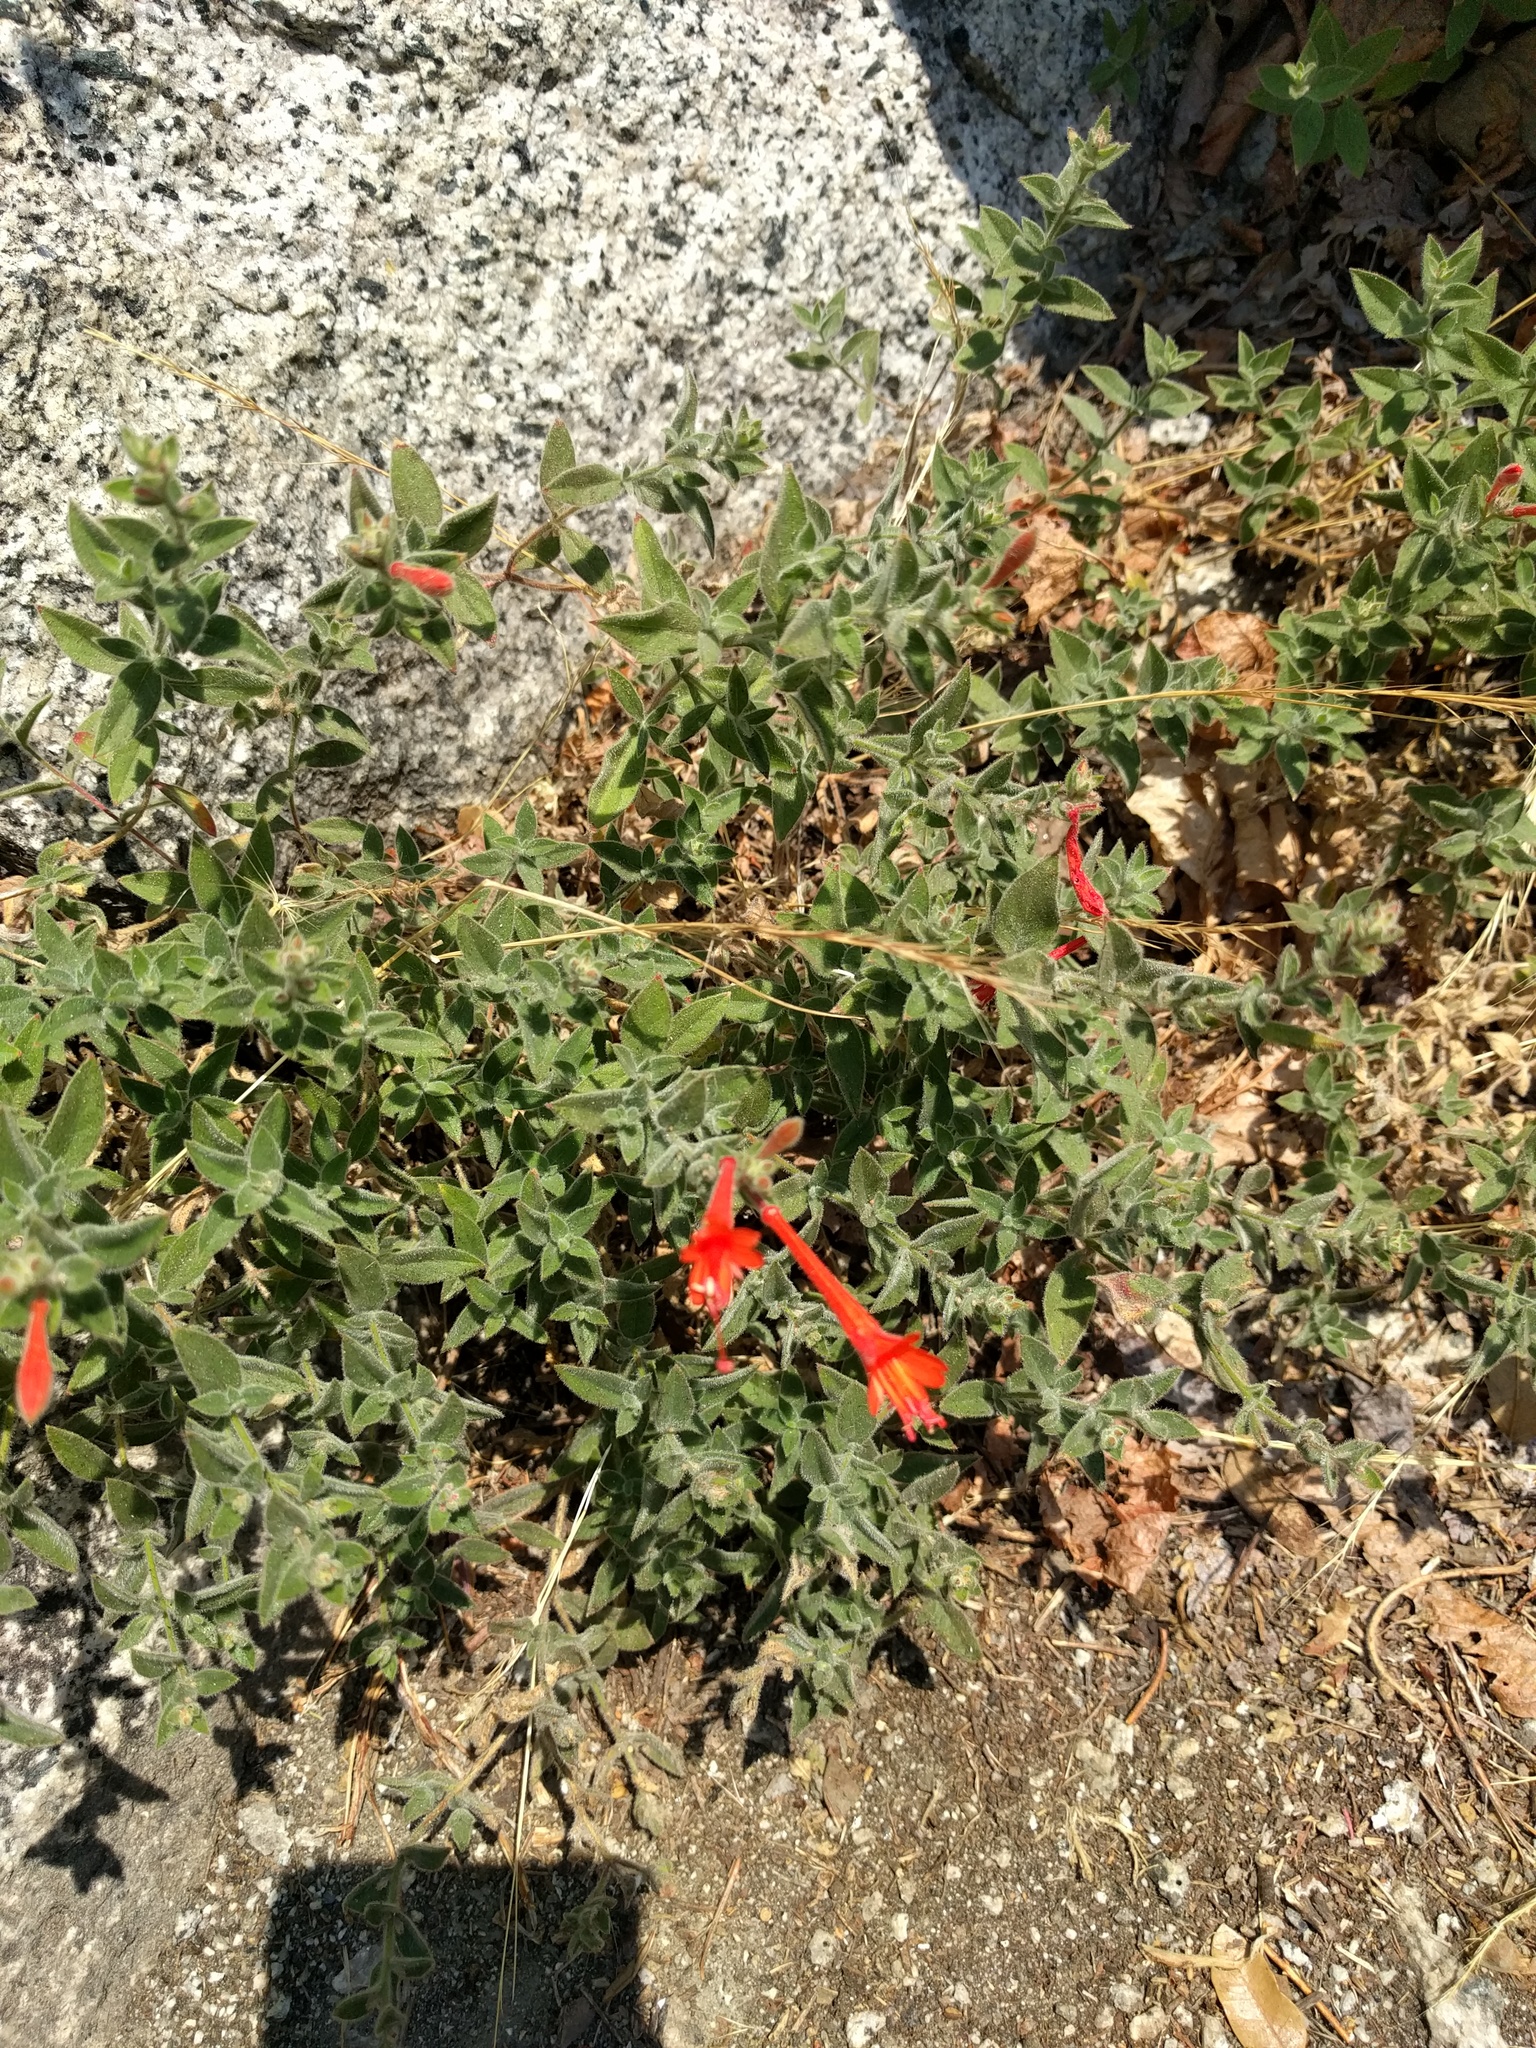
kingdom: Plantae
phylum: Tracheophyta
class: Magnoliopsida
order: Myrtales
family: Onagraceae
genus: Epilobium
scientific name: Epilobium canum
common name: California-fuchsia
